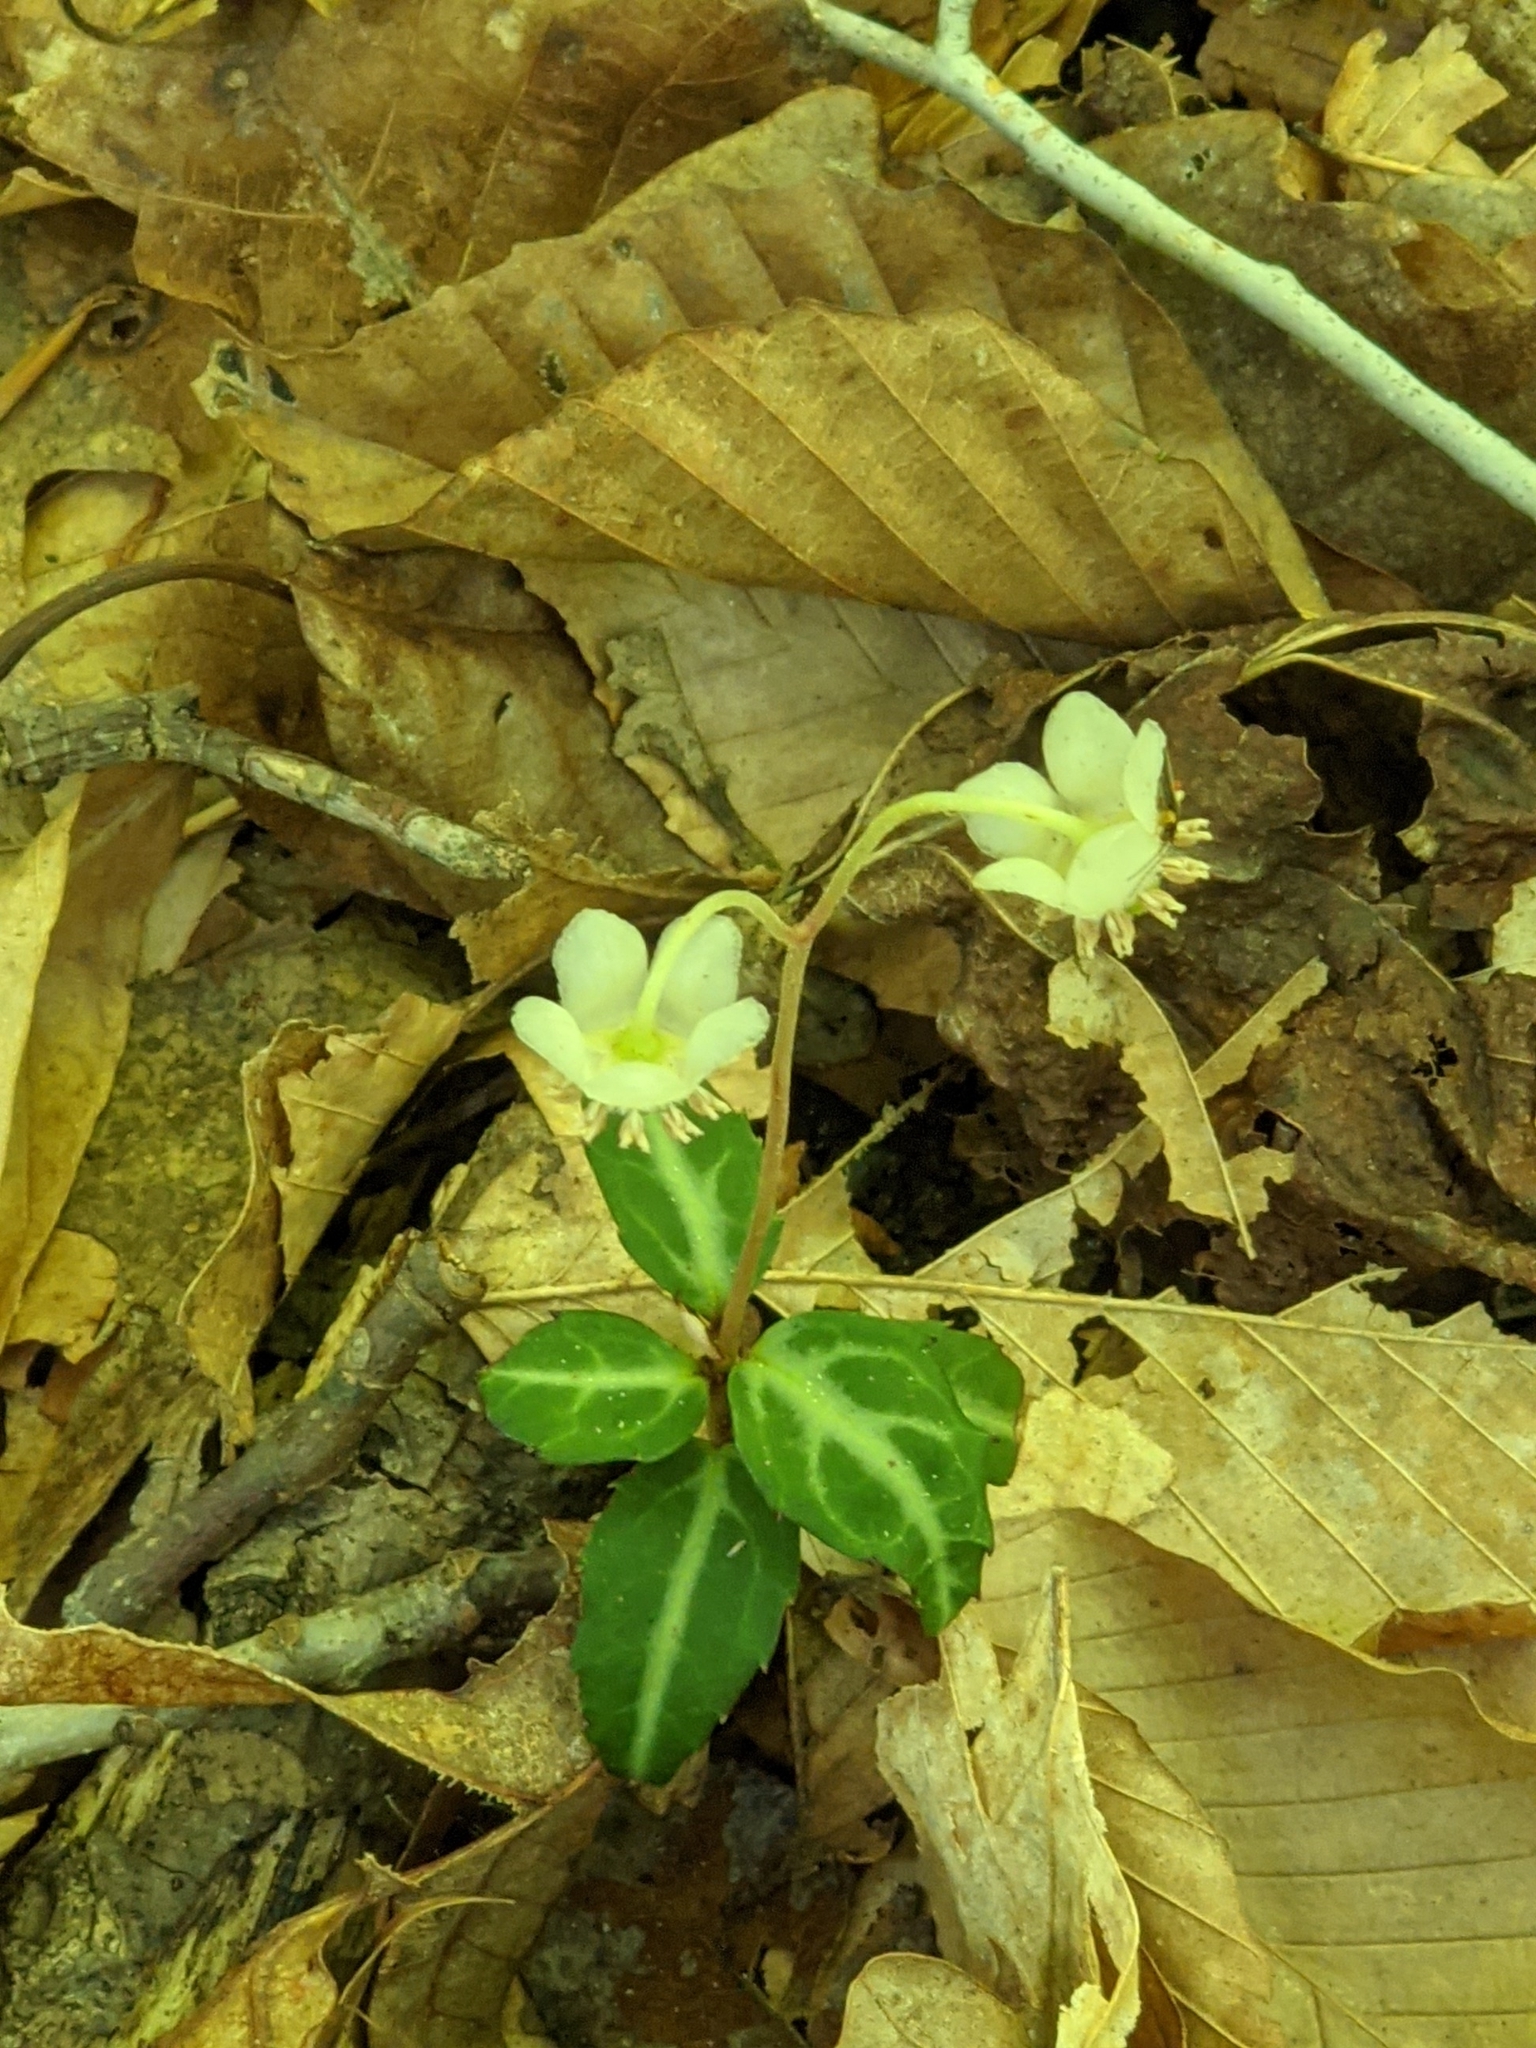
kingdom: Plantae
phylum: Tracheophyta
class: Magnoliopsida
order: Ericales
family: Ericaceae
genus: Chimaphila
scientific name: Chimaphila maculata
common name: Spotted pipsissewa
